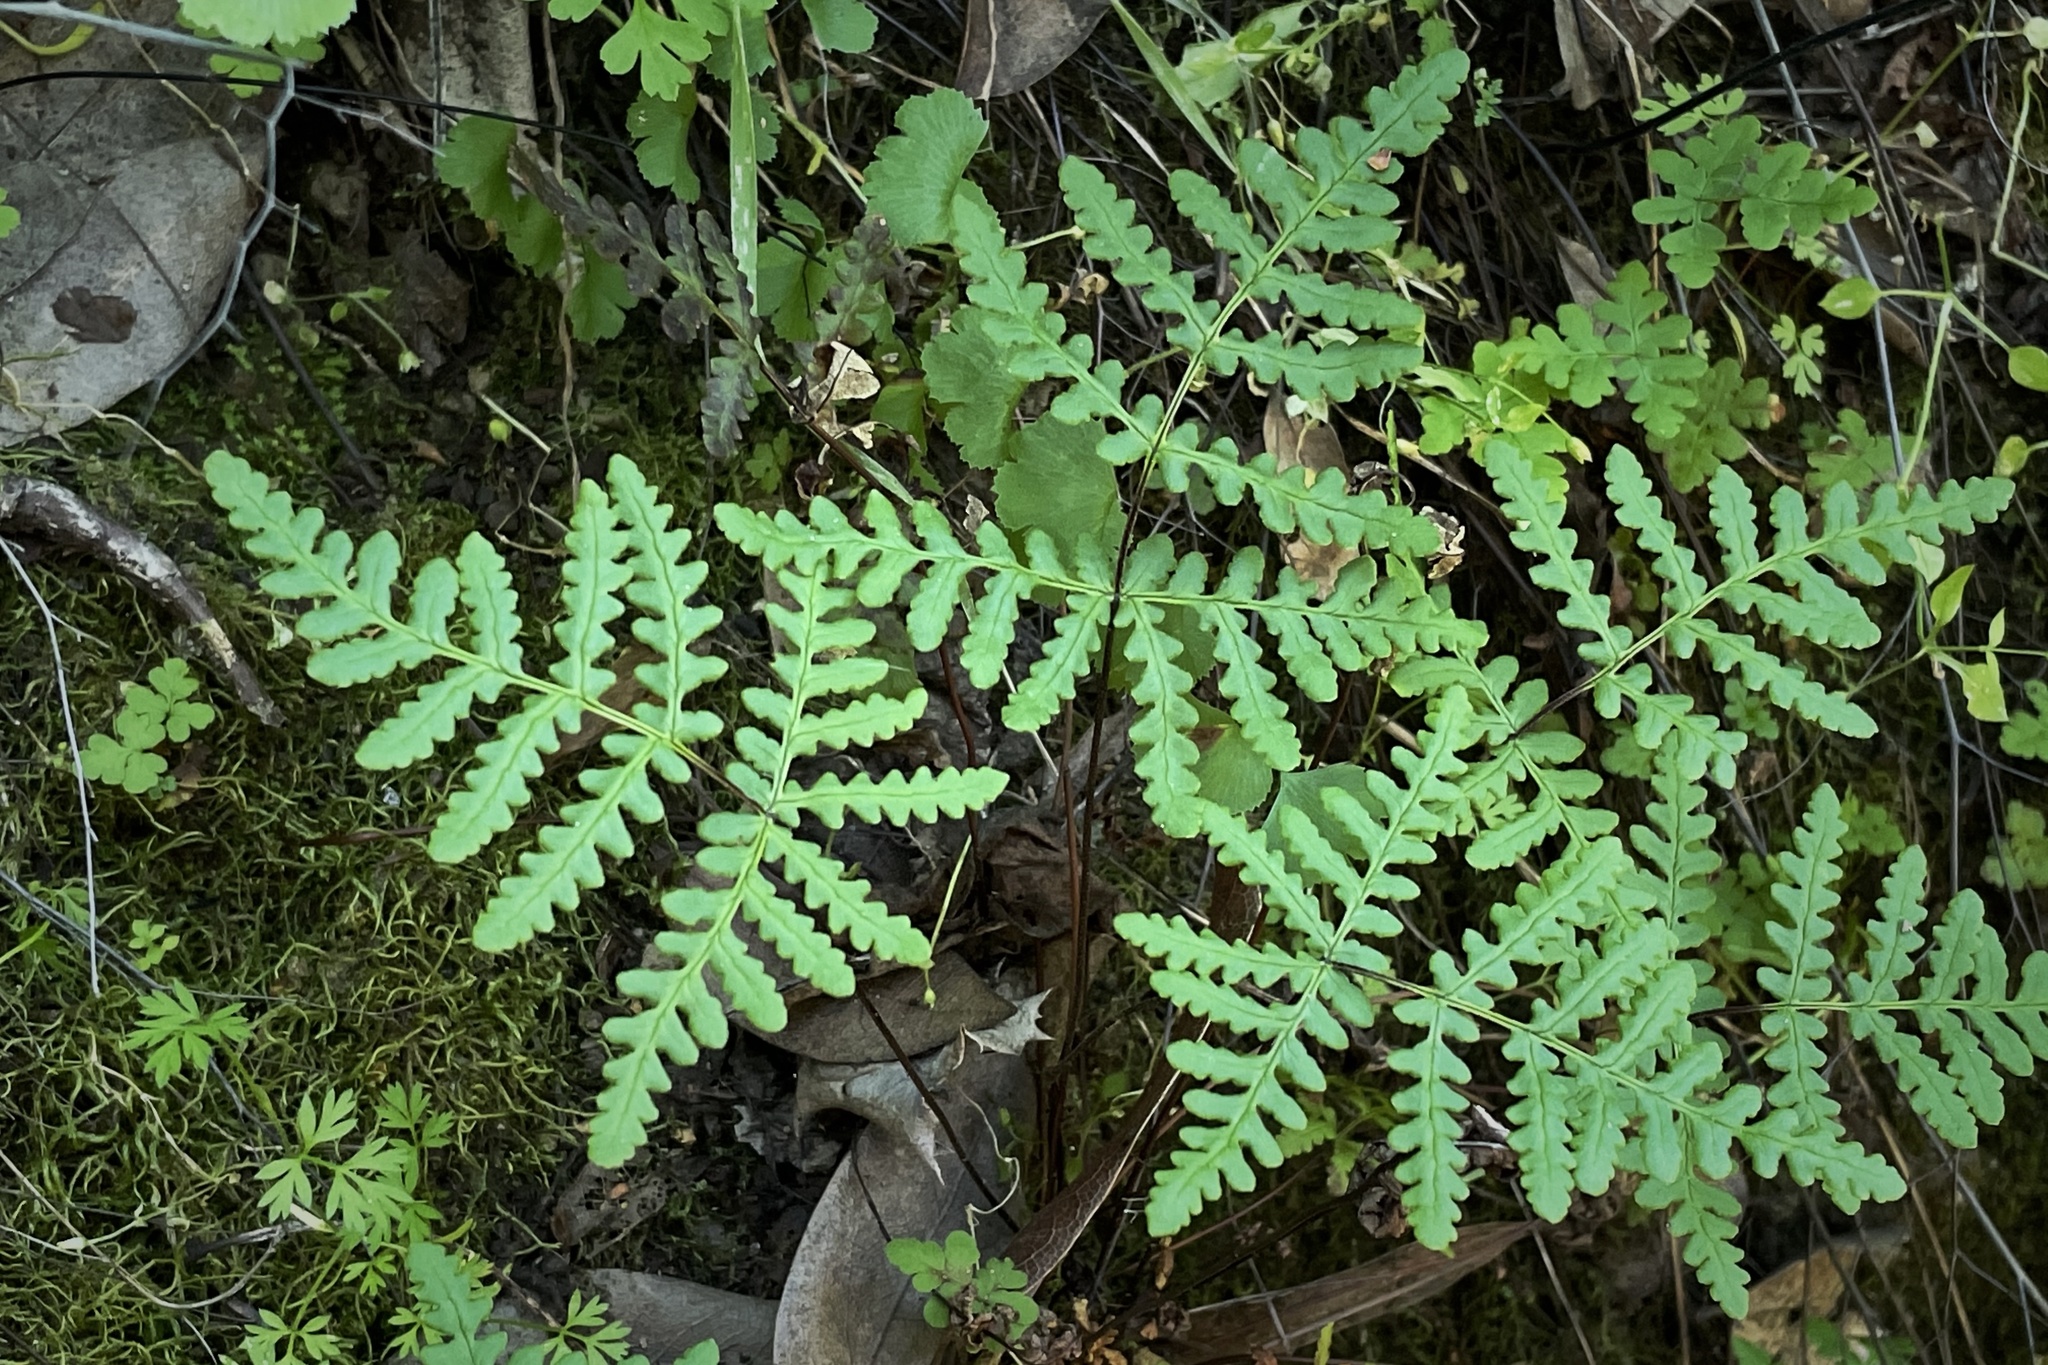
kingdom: Plantae
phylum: Tracheophyta
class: Polypodiopsida
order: Polypodiales
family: Pteridaceae
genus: Pentagramma
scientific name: Pentagramma triangularis
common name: Gold fern
